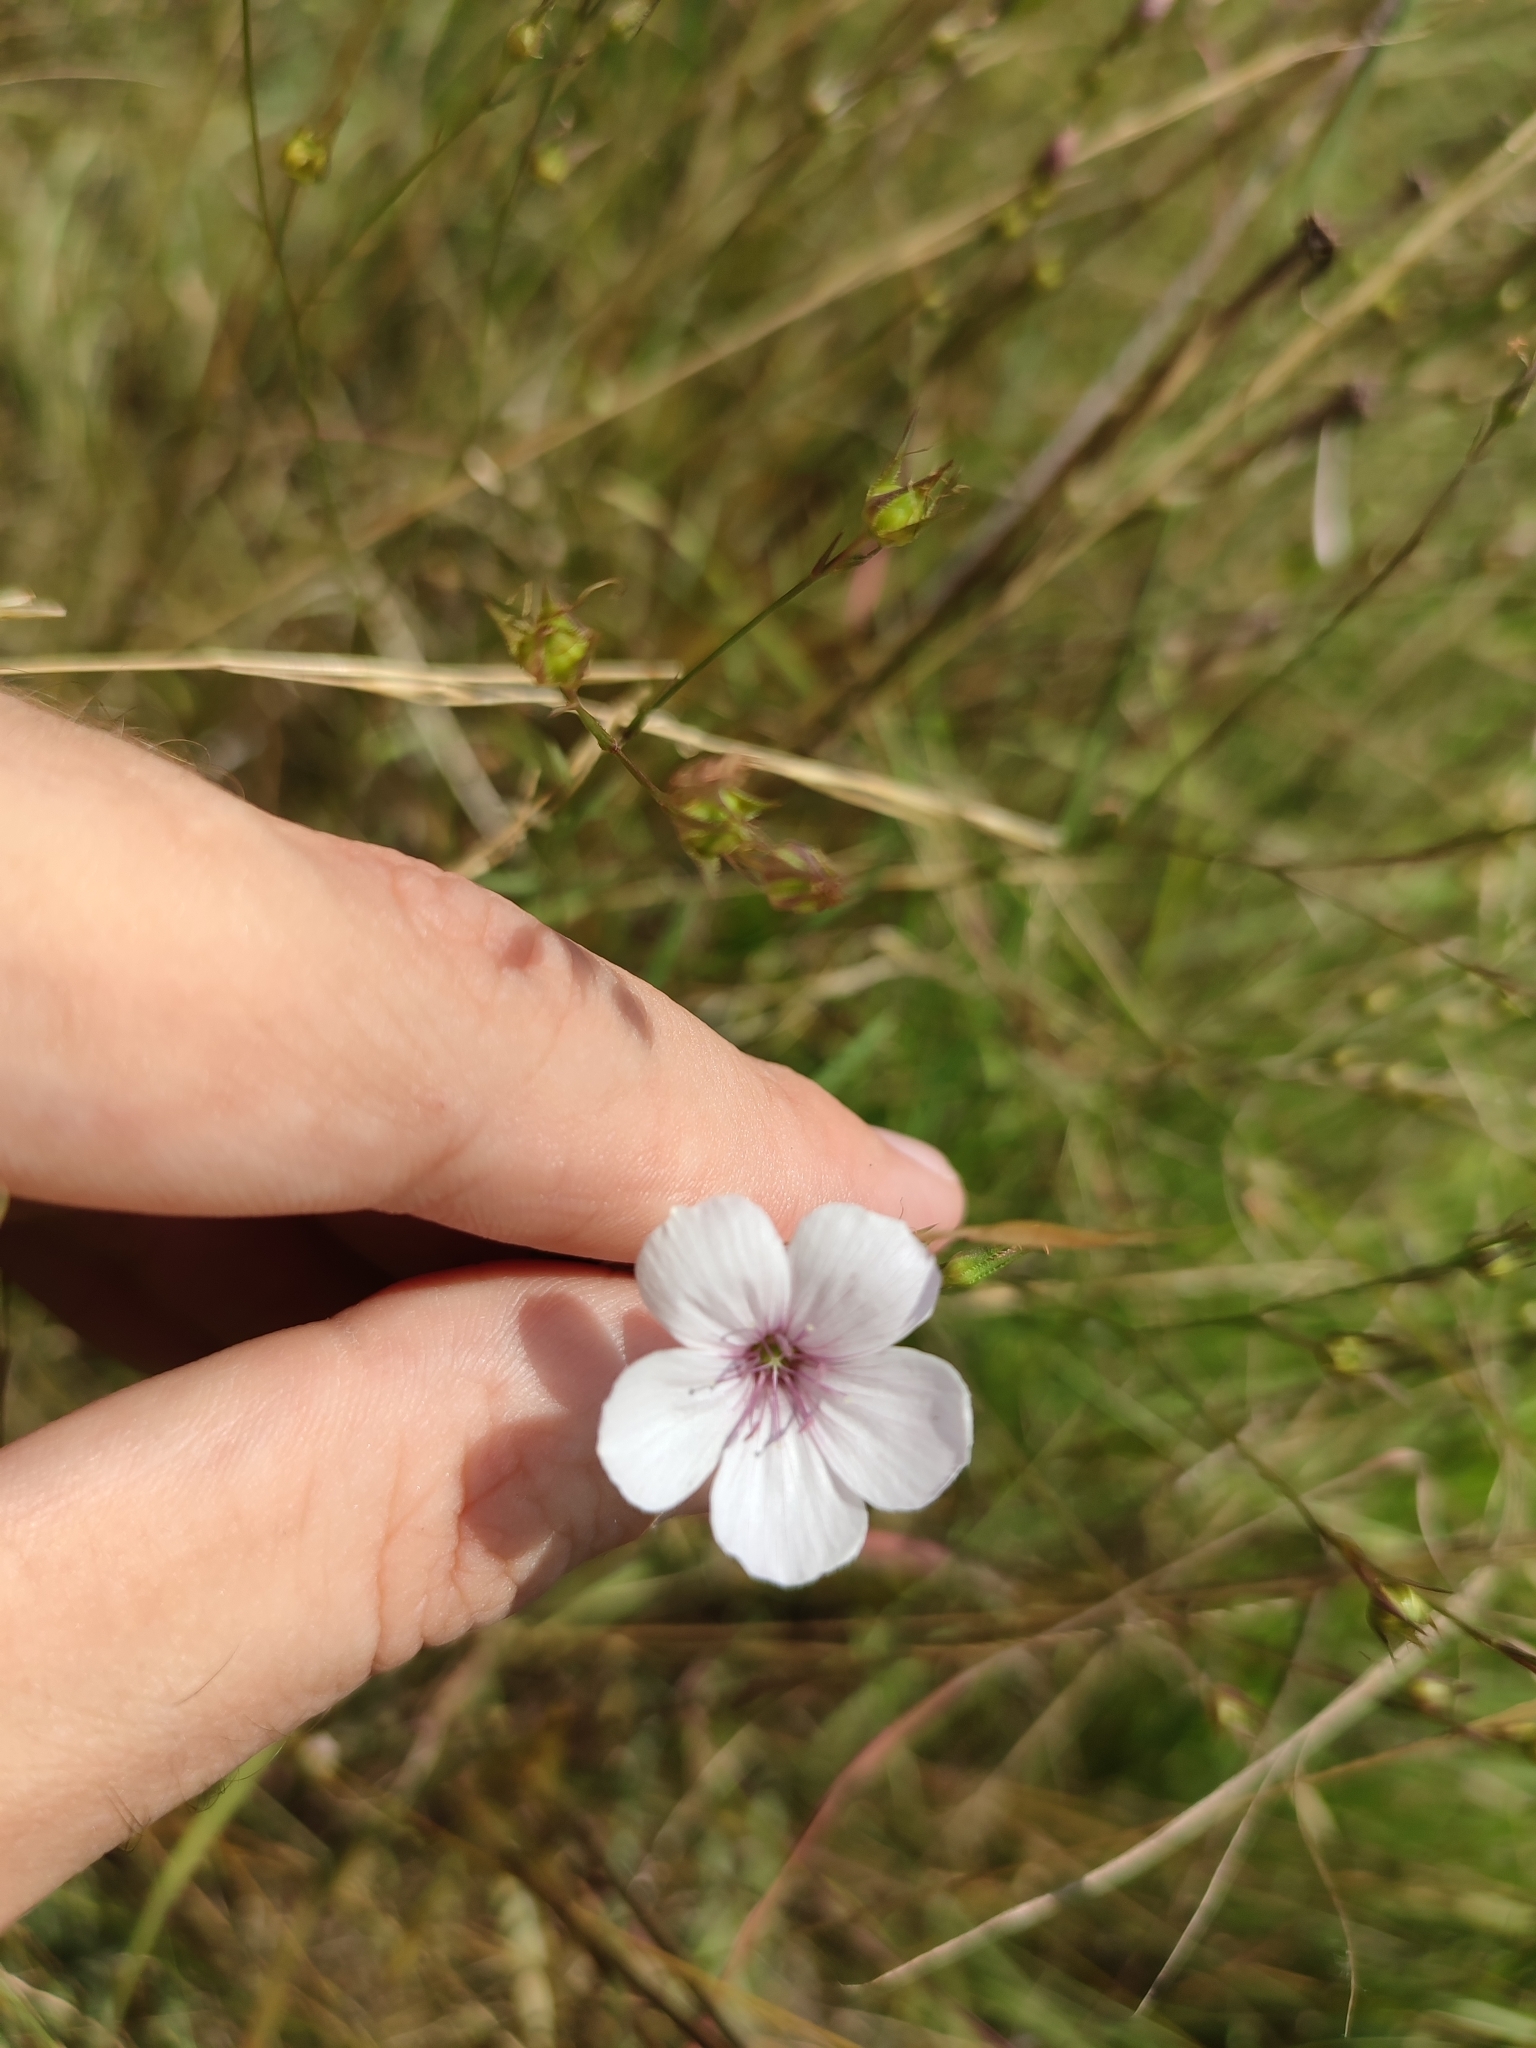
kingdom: Plantae
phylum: Tracheophyta
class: Magnoliopsida
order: Malpighiales
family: Linaceae
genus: Linum
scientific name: Linum tenuifolium
